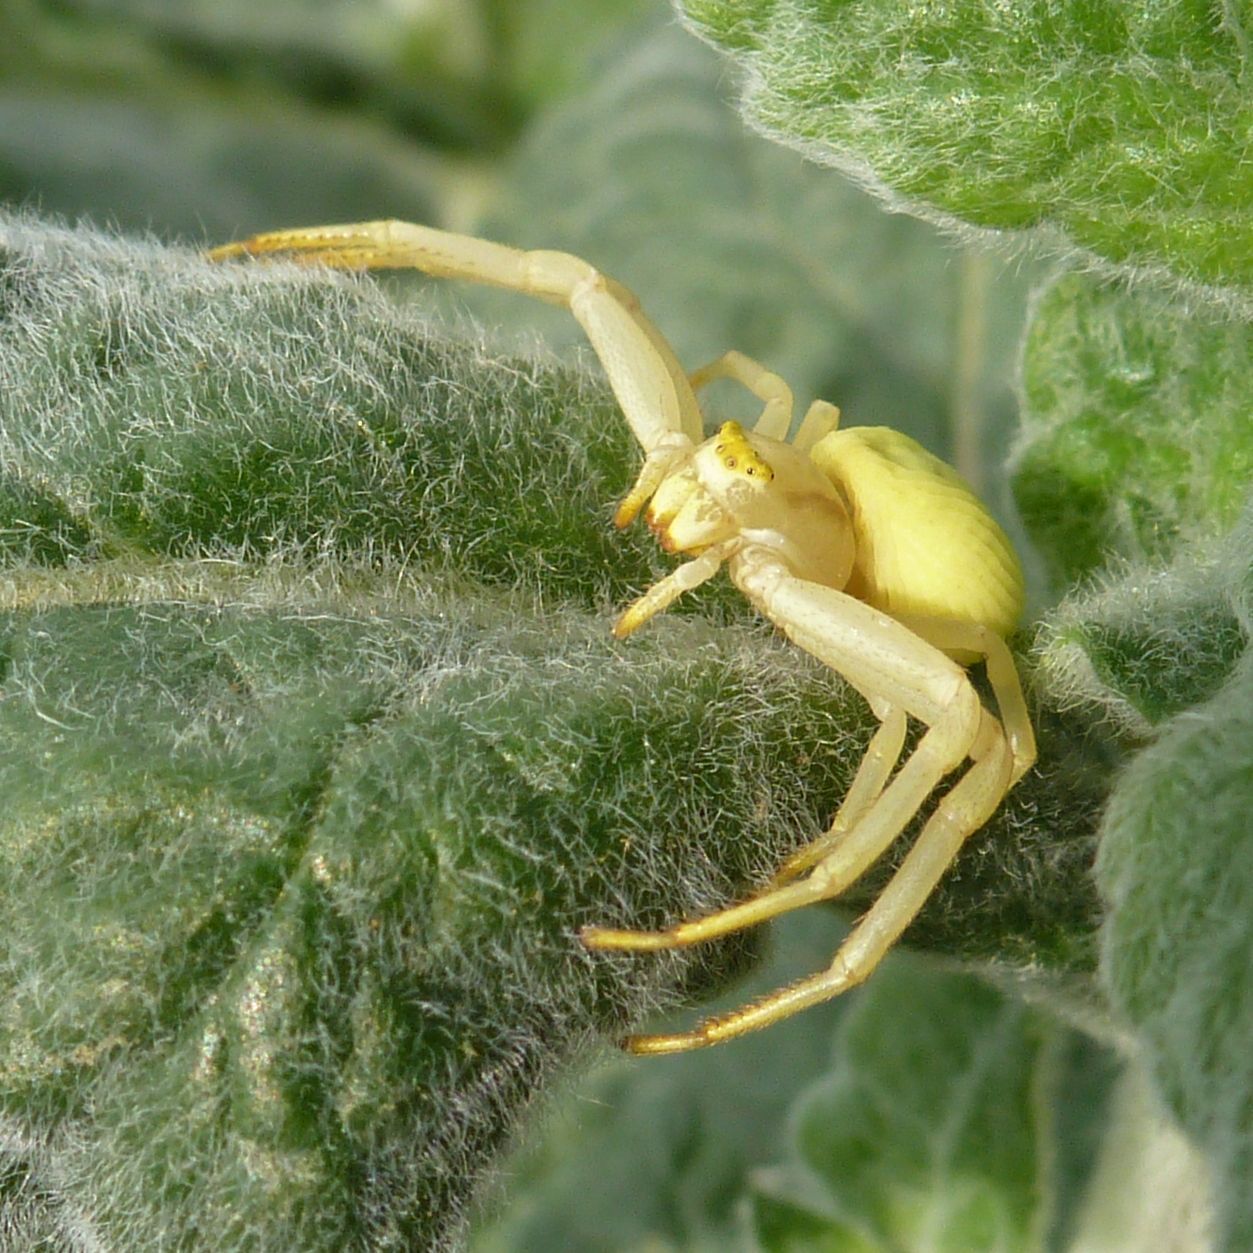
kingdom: Animalia
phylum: Arthropoda
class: Arachnida
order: Araneae
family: Thomisidae
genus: Misumena
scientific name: Misumena vatia
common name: Goldenrod crab spider
